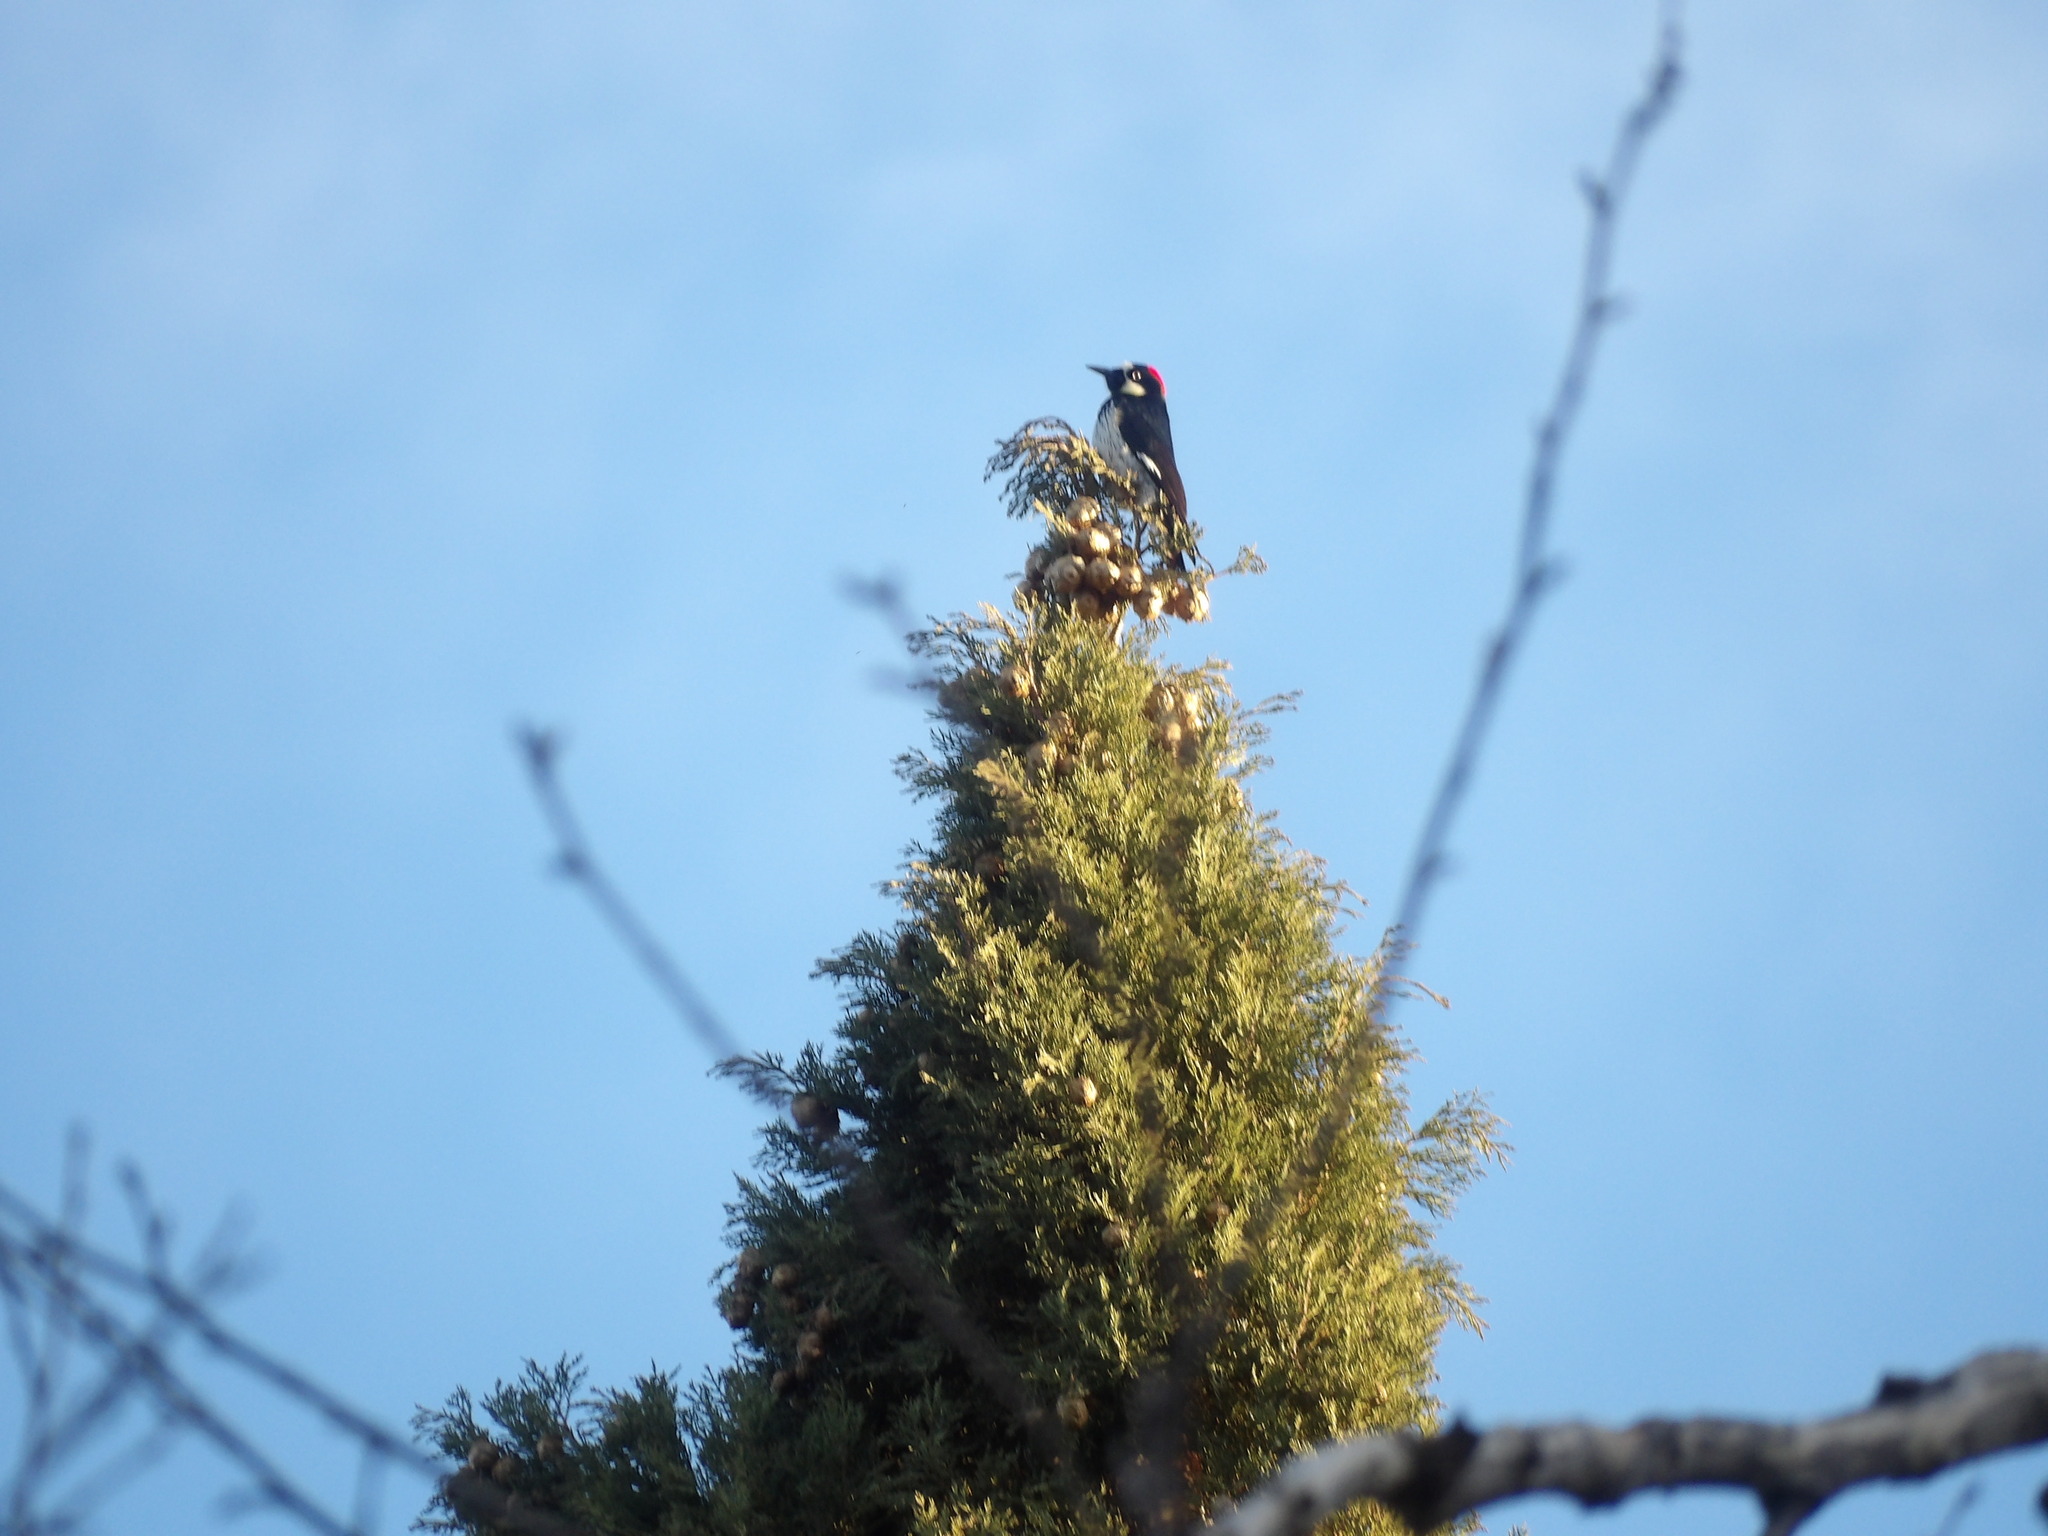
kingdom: Animalia
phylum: Chordata
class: Aves
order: Piciformes
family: Picidae
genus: Melanerpes
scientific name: Melanerpes formicivorus
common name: Acorn woodpecker
